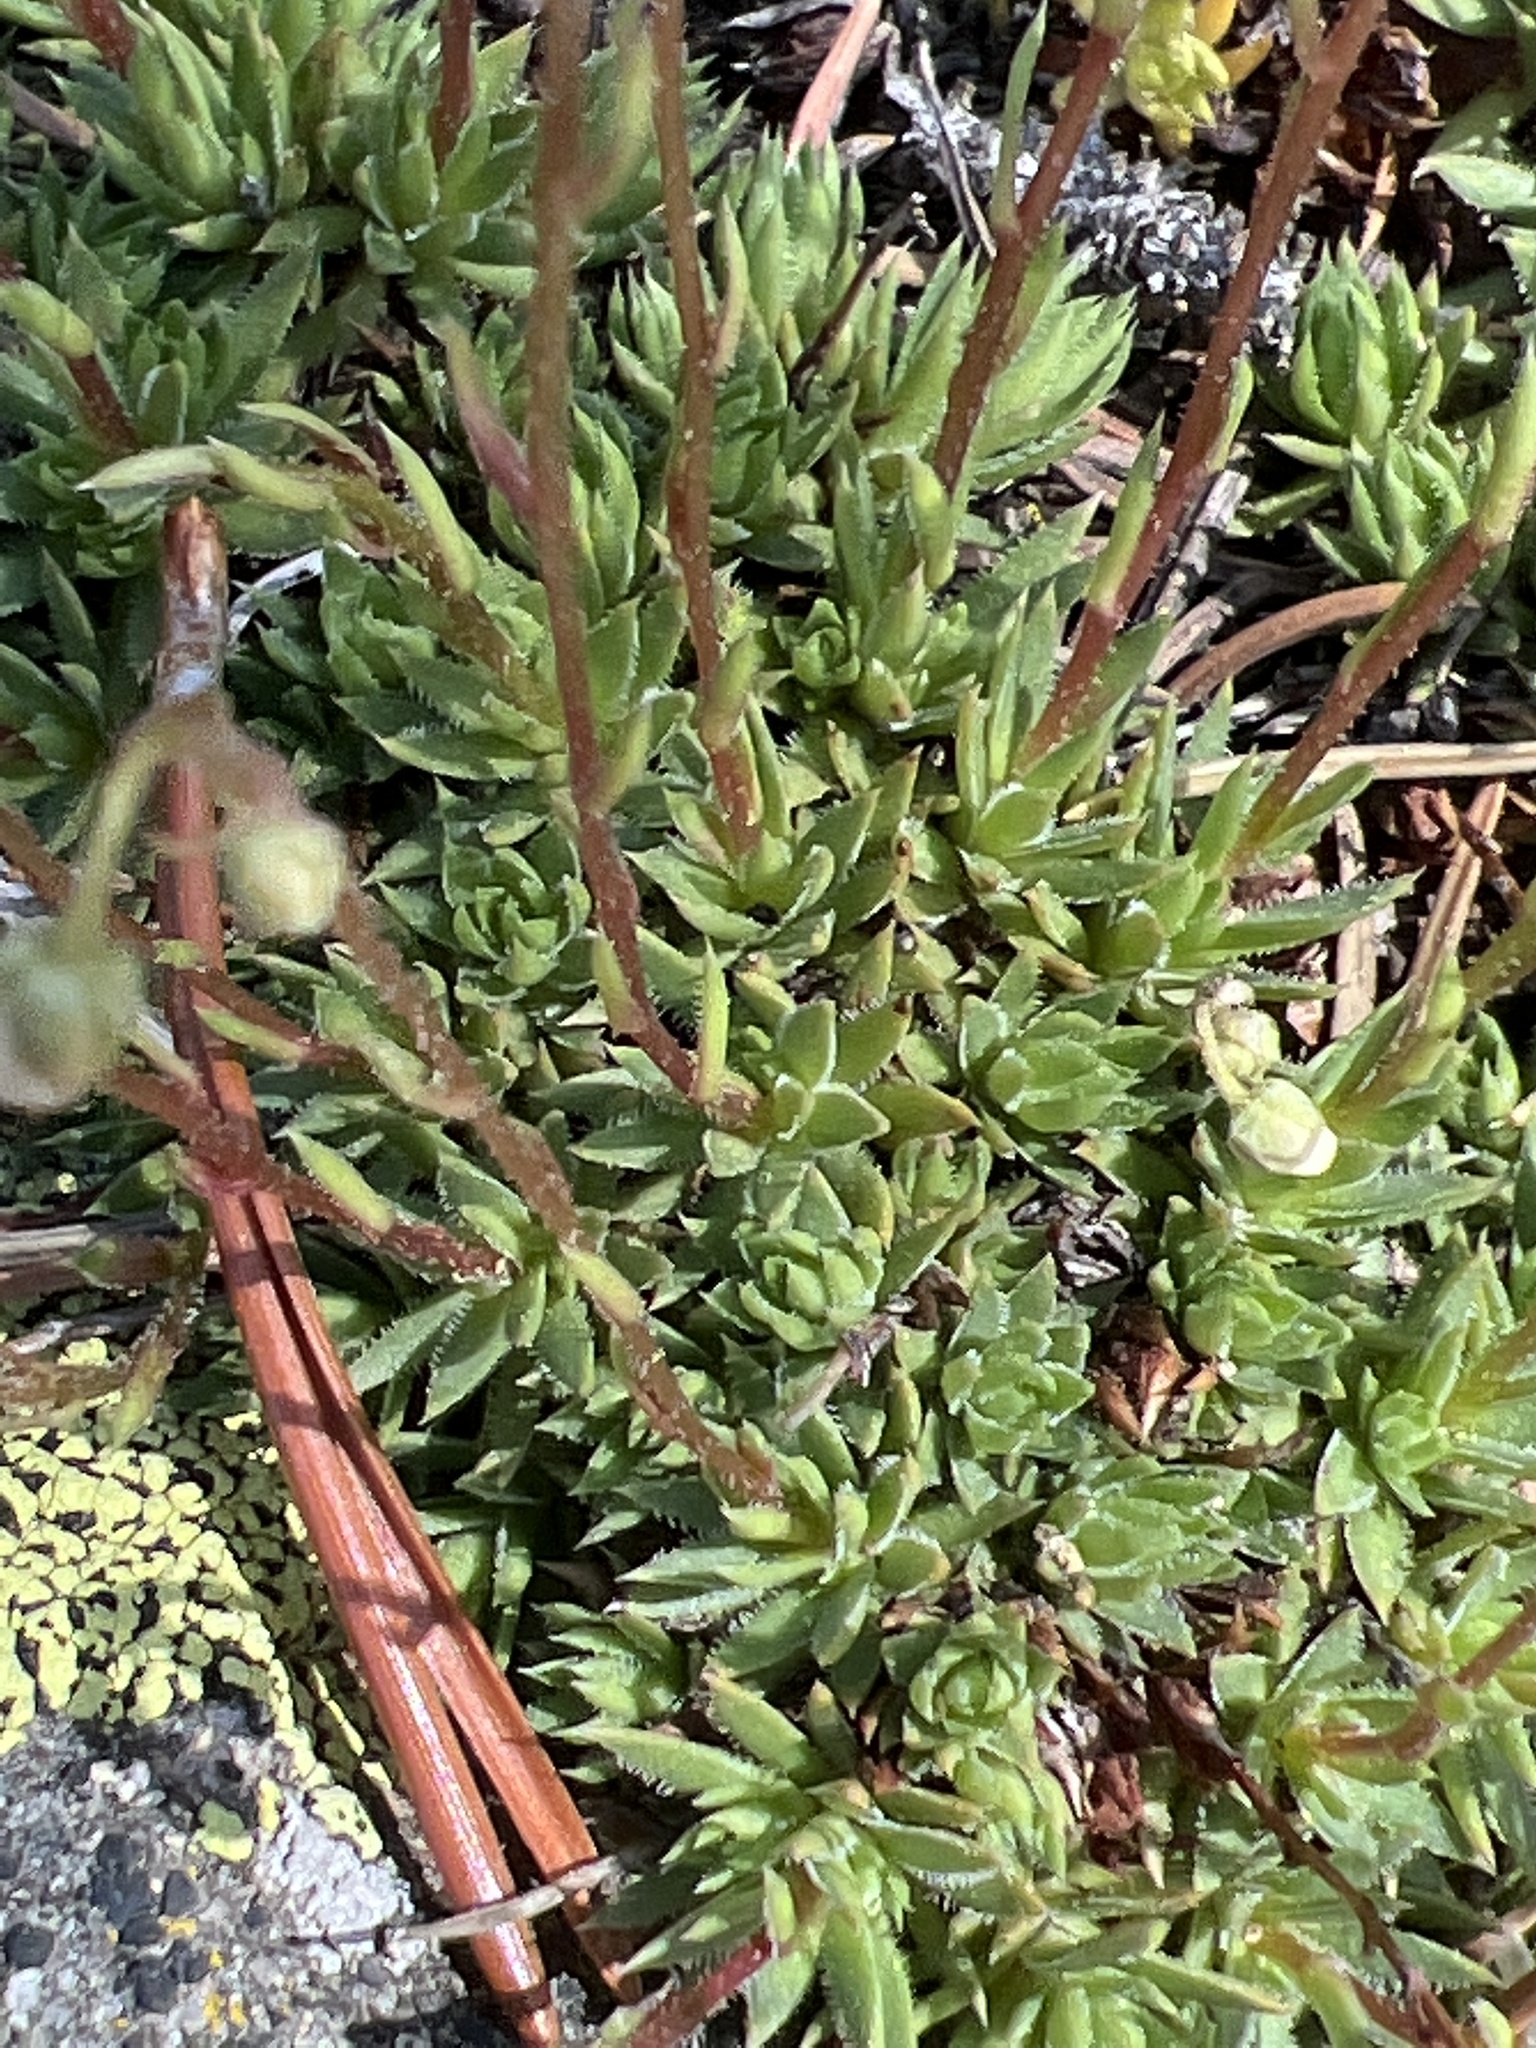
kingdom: Plantae
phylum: Tracheophyta
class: Magnoliopsida
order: Saxifragales
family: Saxifragaceae
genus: Saxifraga
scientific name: Saxifraga bronchialis
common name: Matted saxifrage
